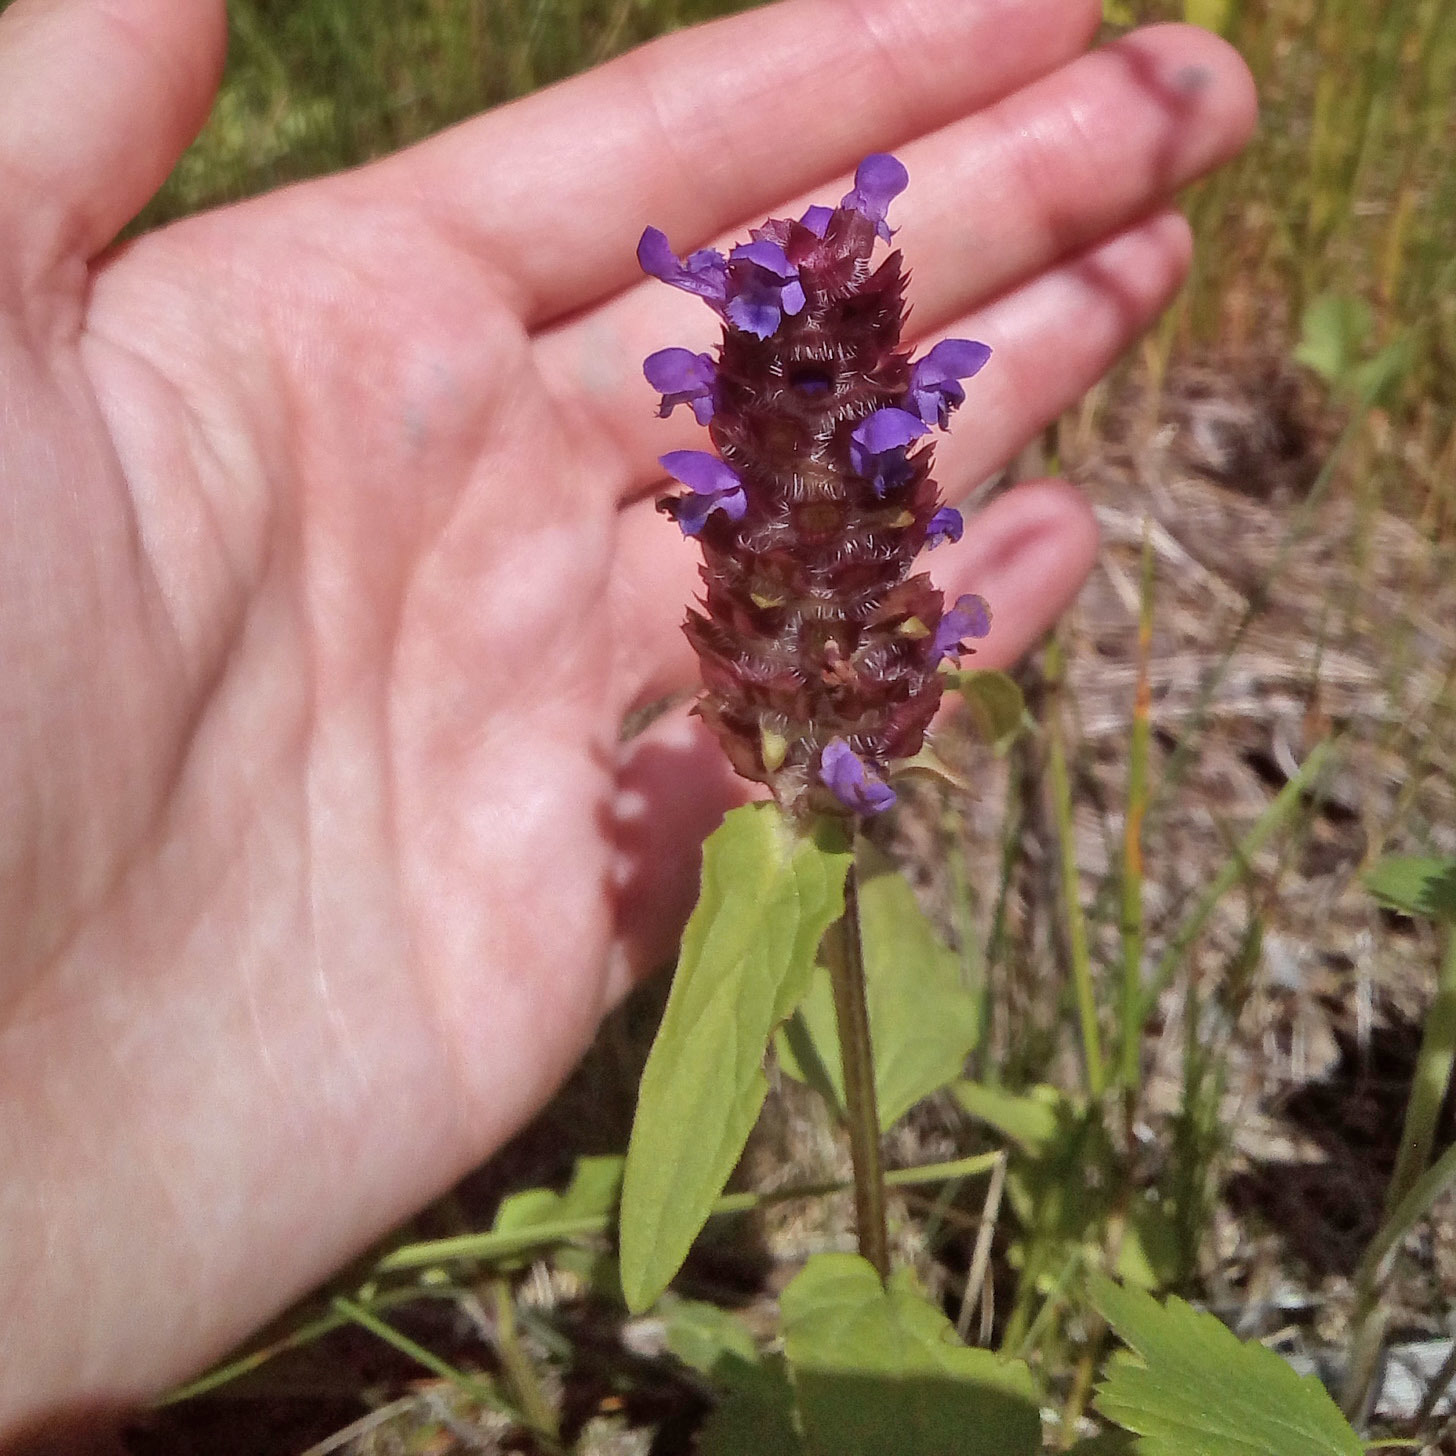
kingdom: Plantae
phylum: Tracheophyta
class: Magnoliopsida
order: Lamiales
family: Lamiaceae
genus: Prunella
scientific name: Prunella vulgaris
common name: Heal-all
